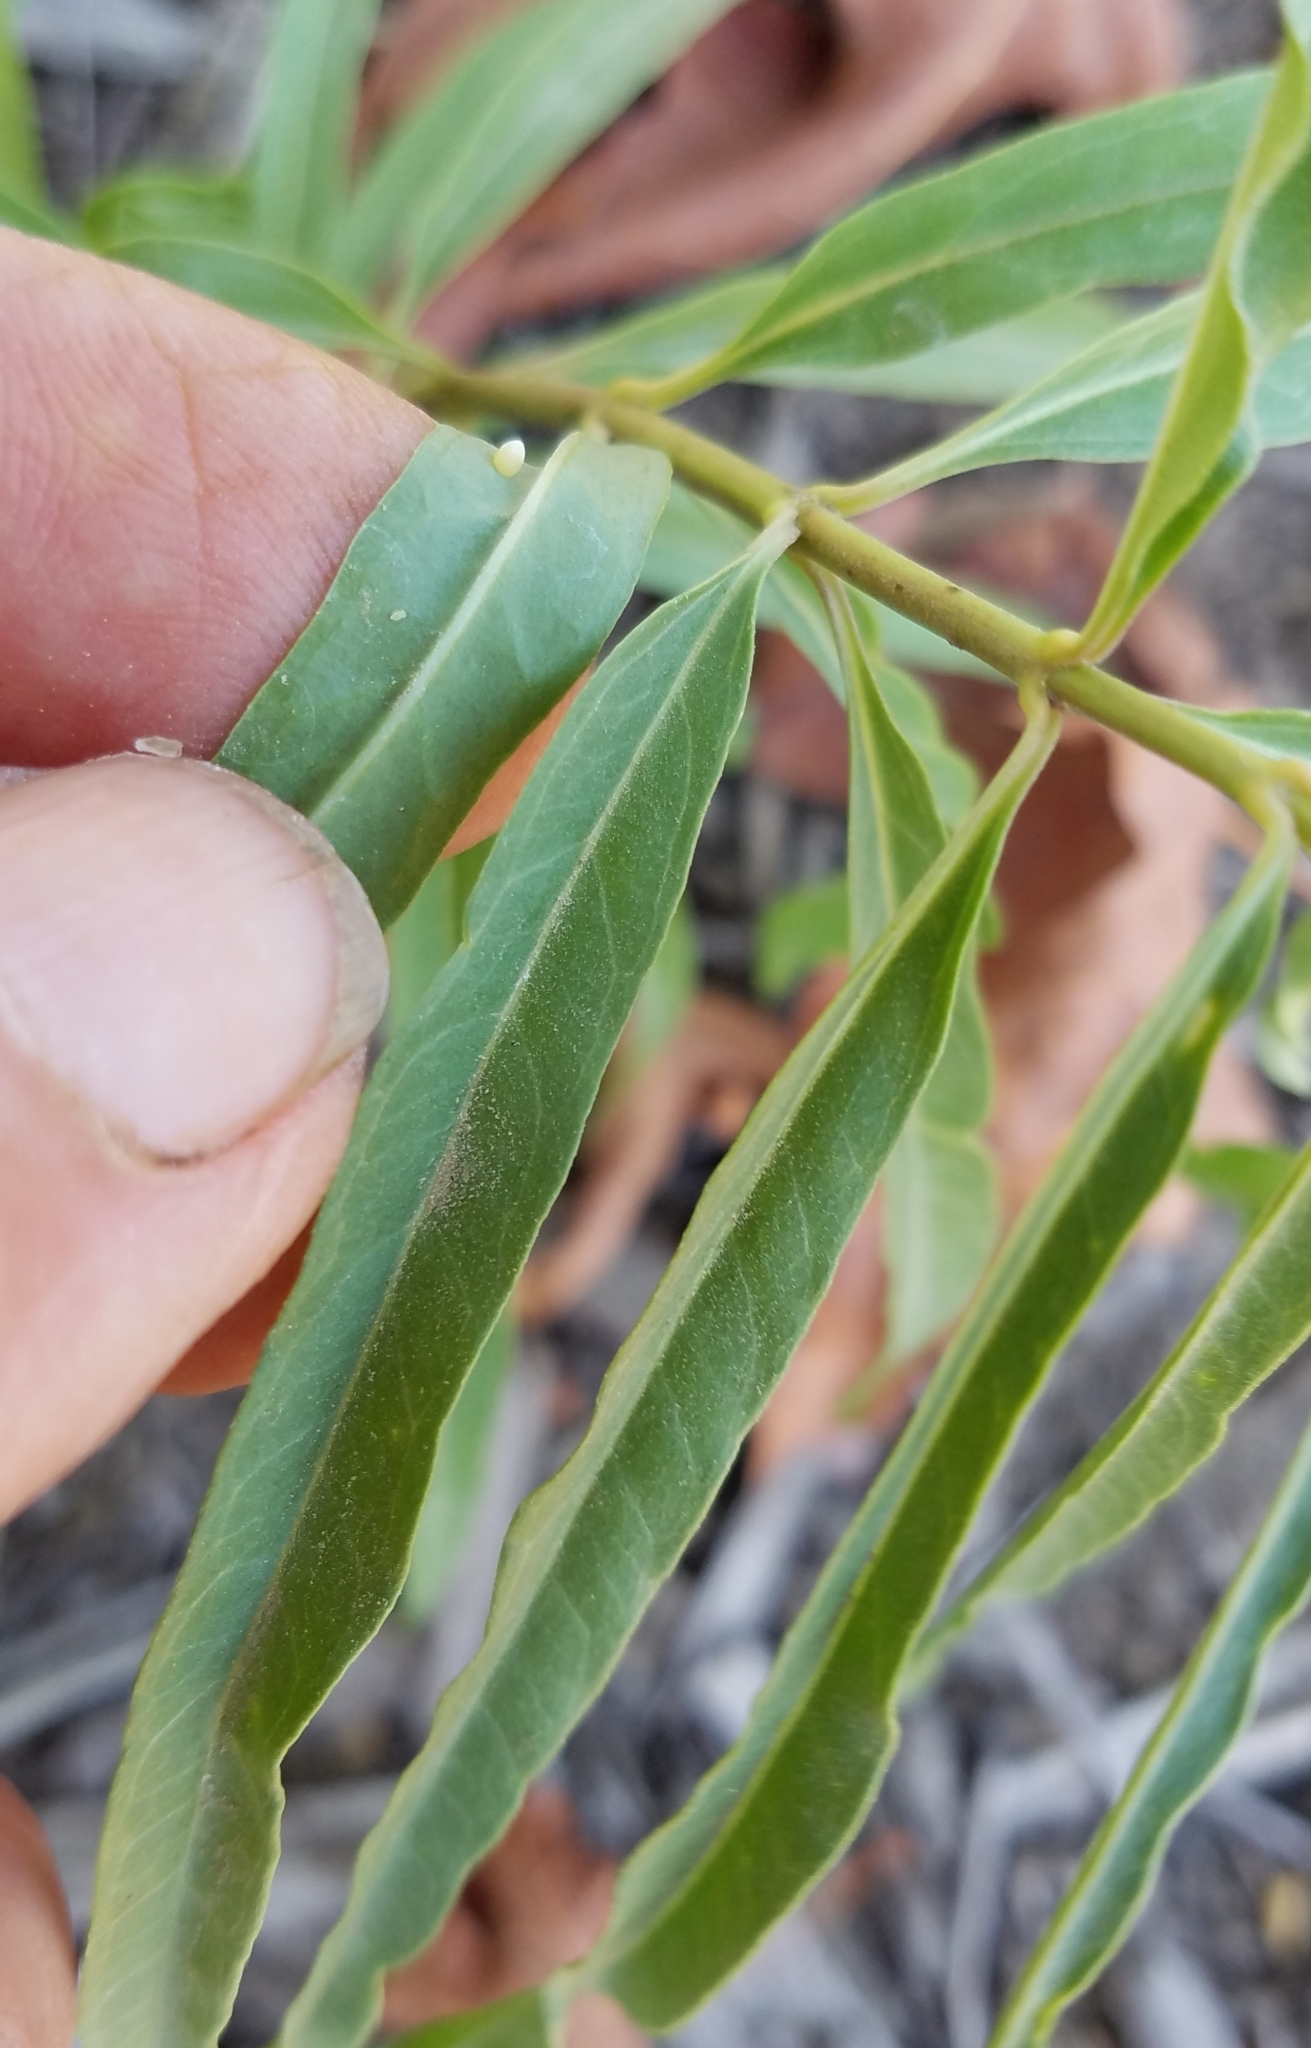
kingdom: Animalia
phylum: Arthropoda
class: Insecta
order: Lepidoptera
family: Nymphalidae
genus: Danaus
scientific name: Danaus plexippus
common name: Monarch
